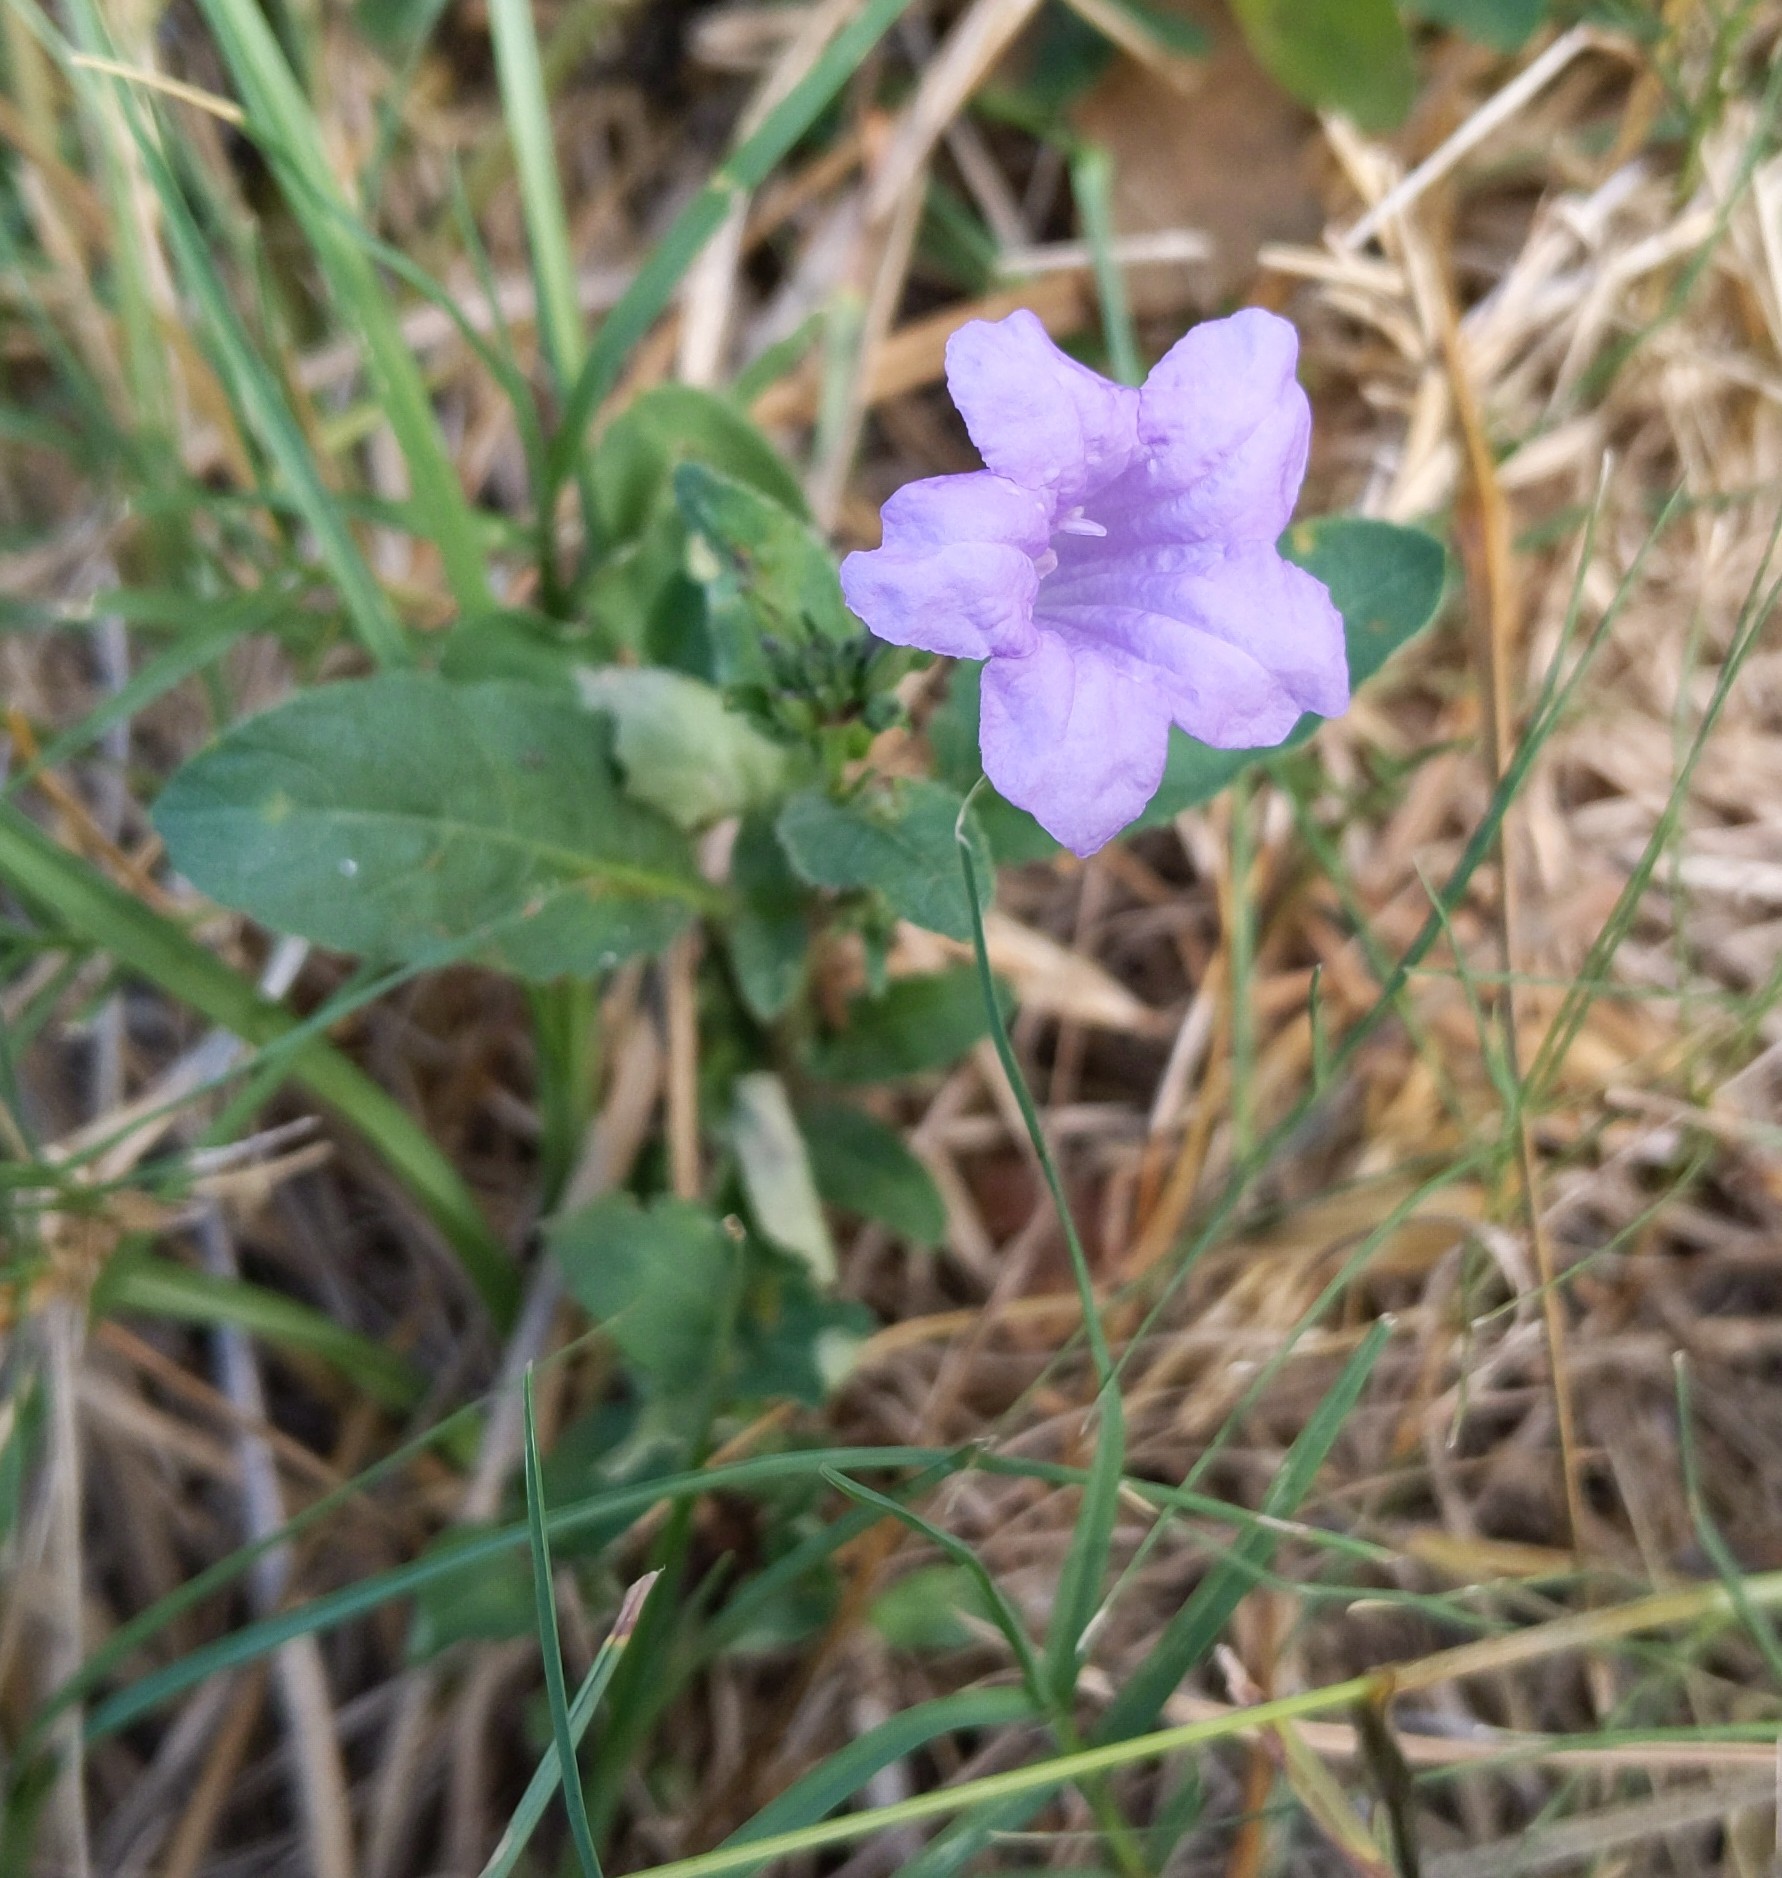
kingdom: Plantae
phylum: Tracheophyta
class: Magnoliopsida
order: Lamiales
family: Acanthaceae
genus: Ruellia
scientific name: Ruellia ciliatiflora
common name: Hairyflower wild petunia
